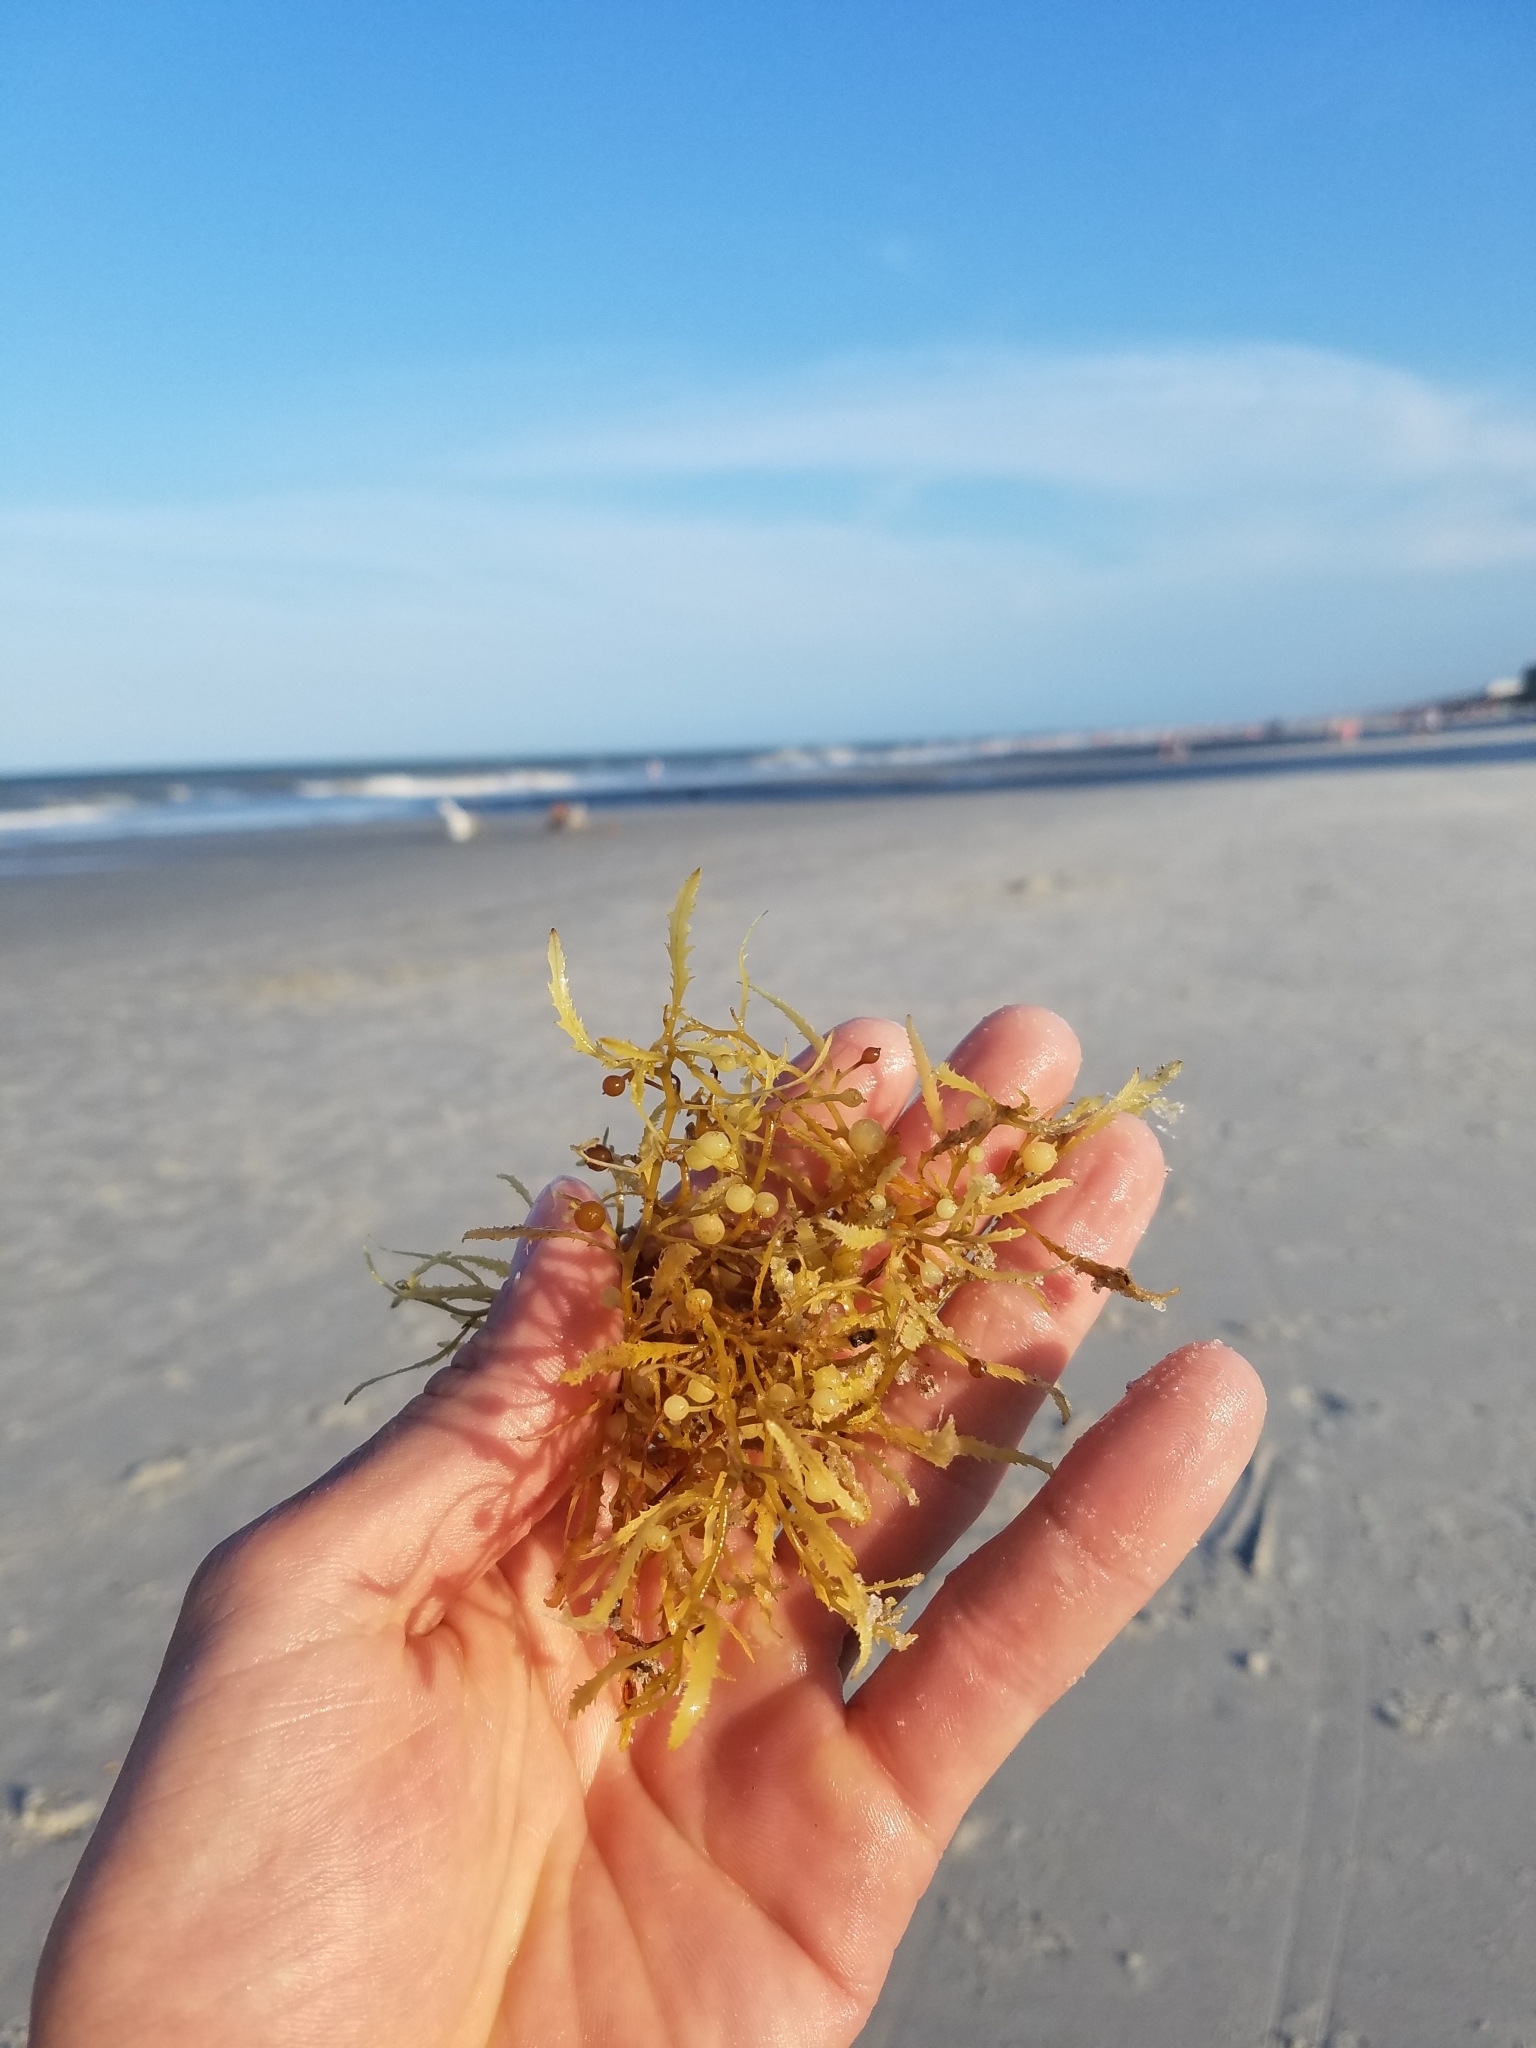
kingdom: Chromista
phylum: Ochrophyta
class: Phaeophyceae
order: Fucales
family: Sargassaceae
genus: Sargassum
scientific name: Sargassum fluitans
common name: Sargassum seaweed
